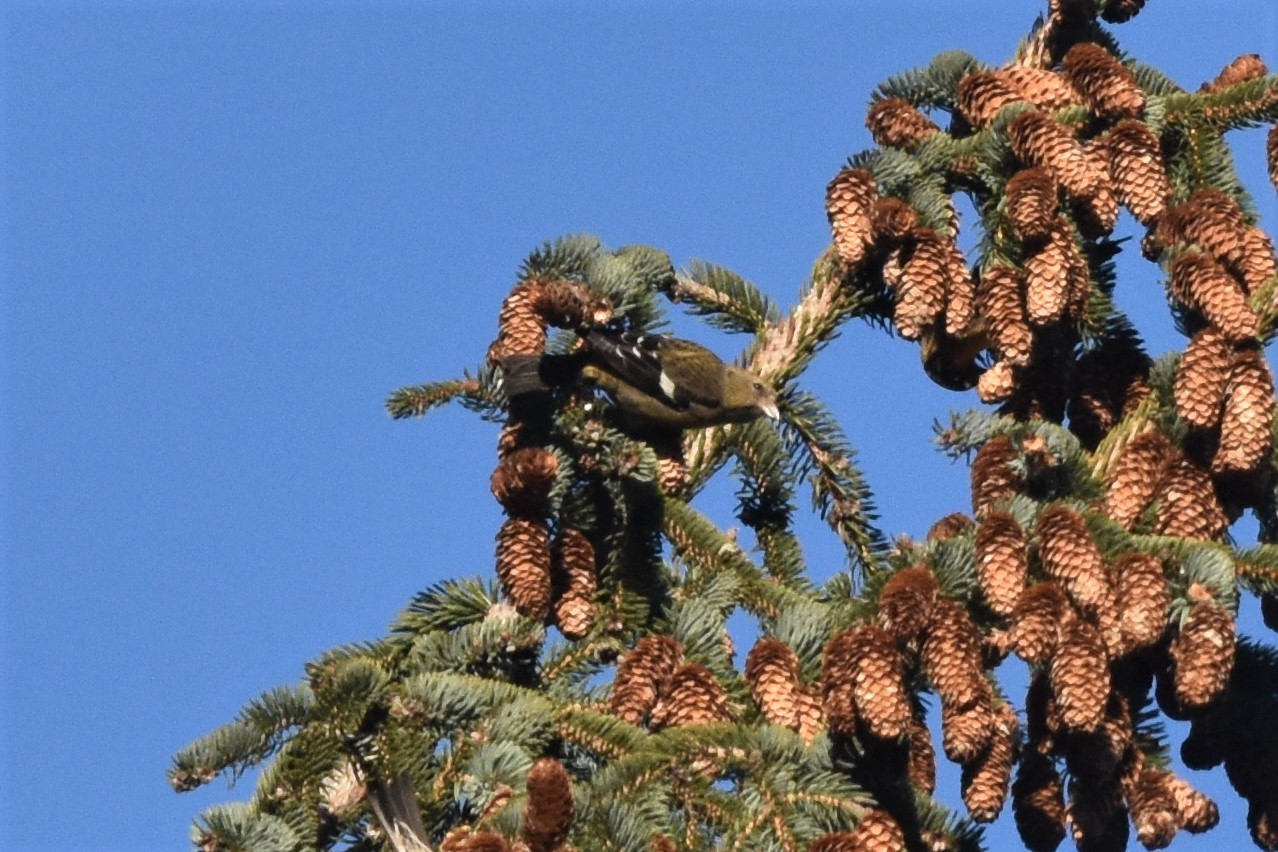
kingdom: Animalia
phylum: Chordata
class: Aves
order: Passeriformes
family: Fringillidae
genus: Loxia
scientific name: Loxia leucoptera
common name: Two-barred crossbill
